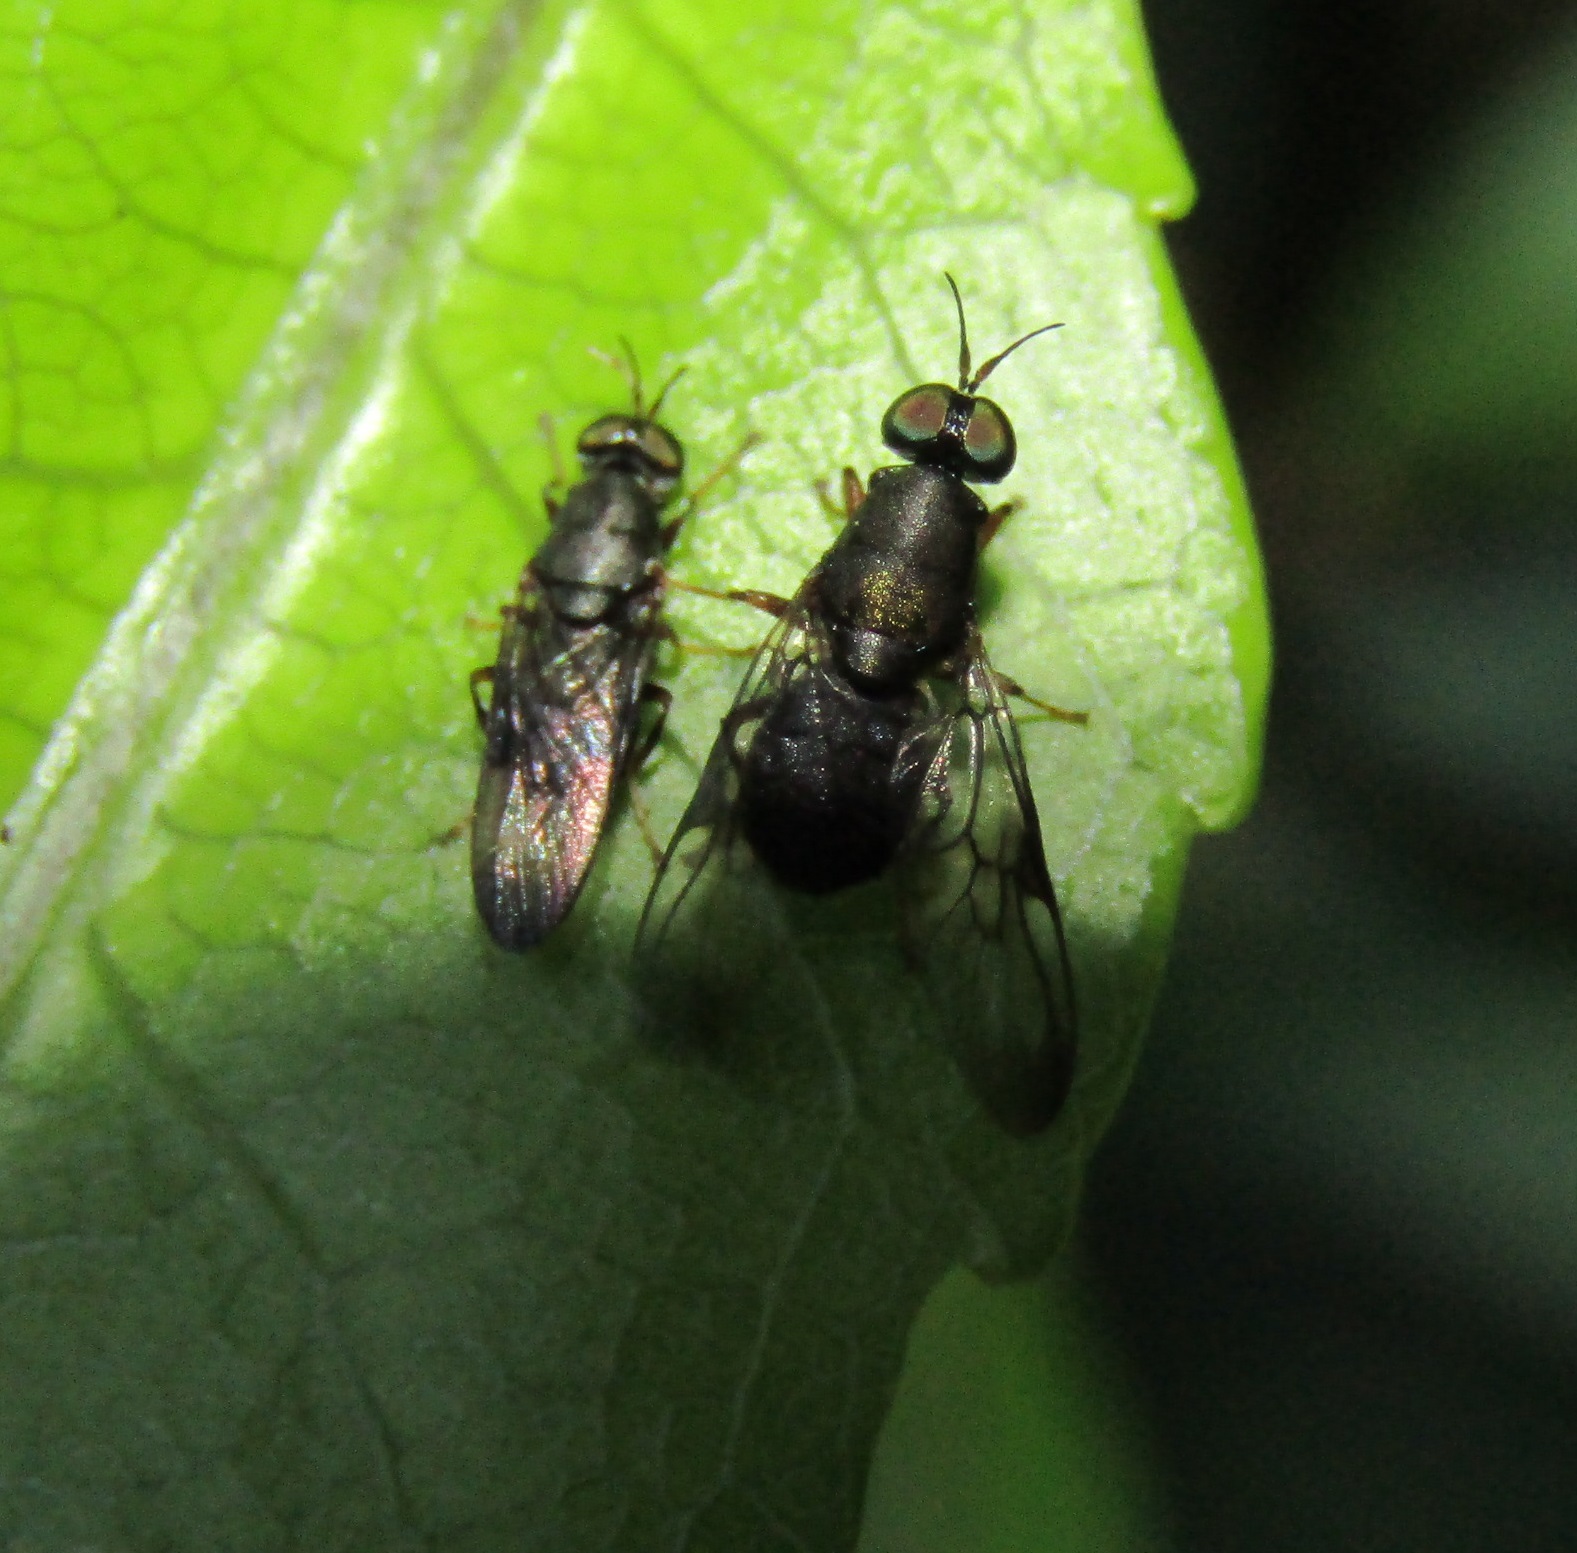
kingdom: Animalia
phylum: Arthropoda
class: Insecta
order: Diptera
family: Stratiomyidae
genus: Dysbiota
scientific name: Dysbiota peregrina
